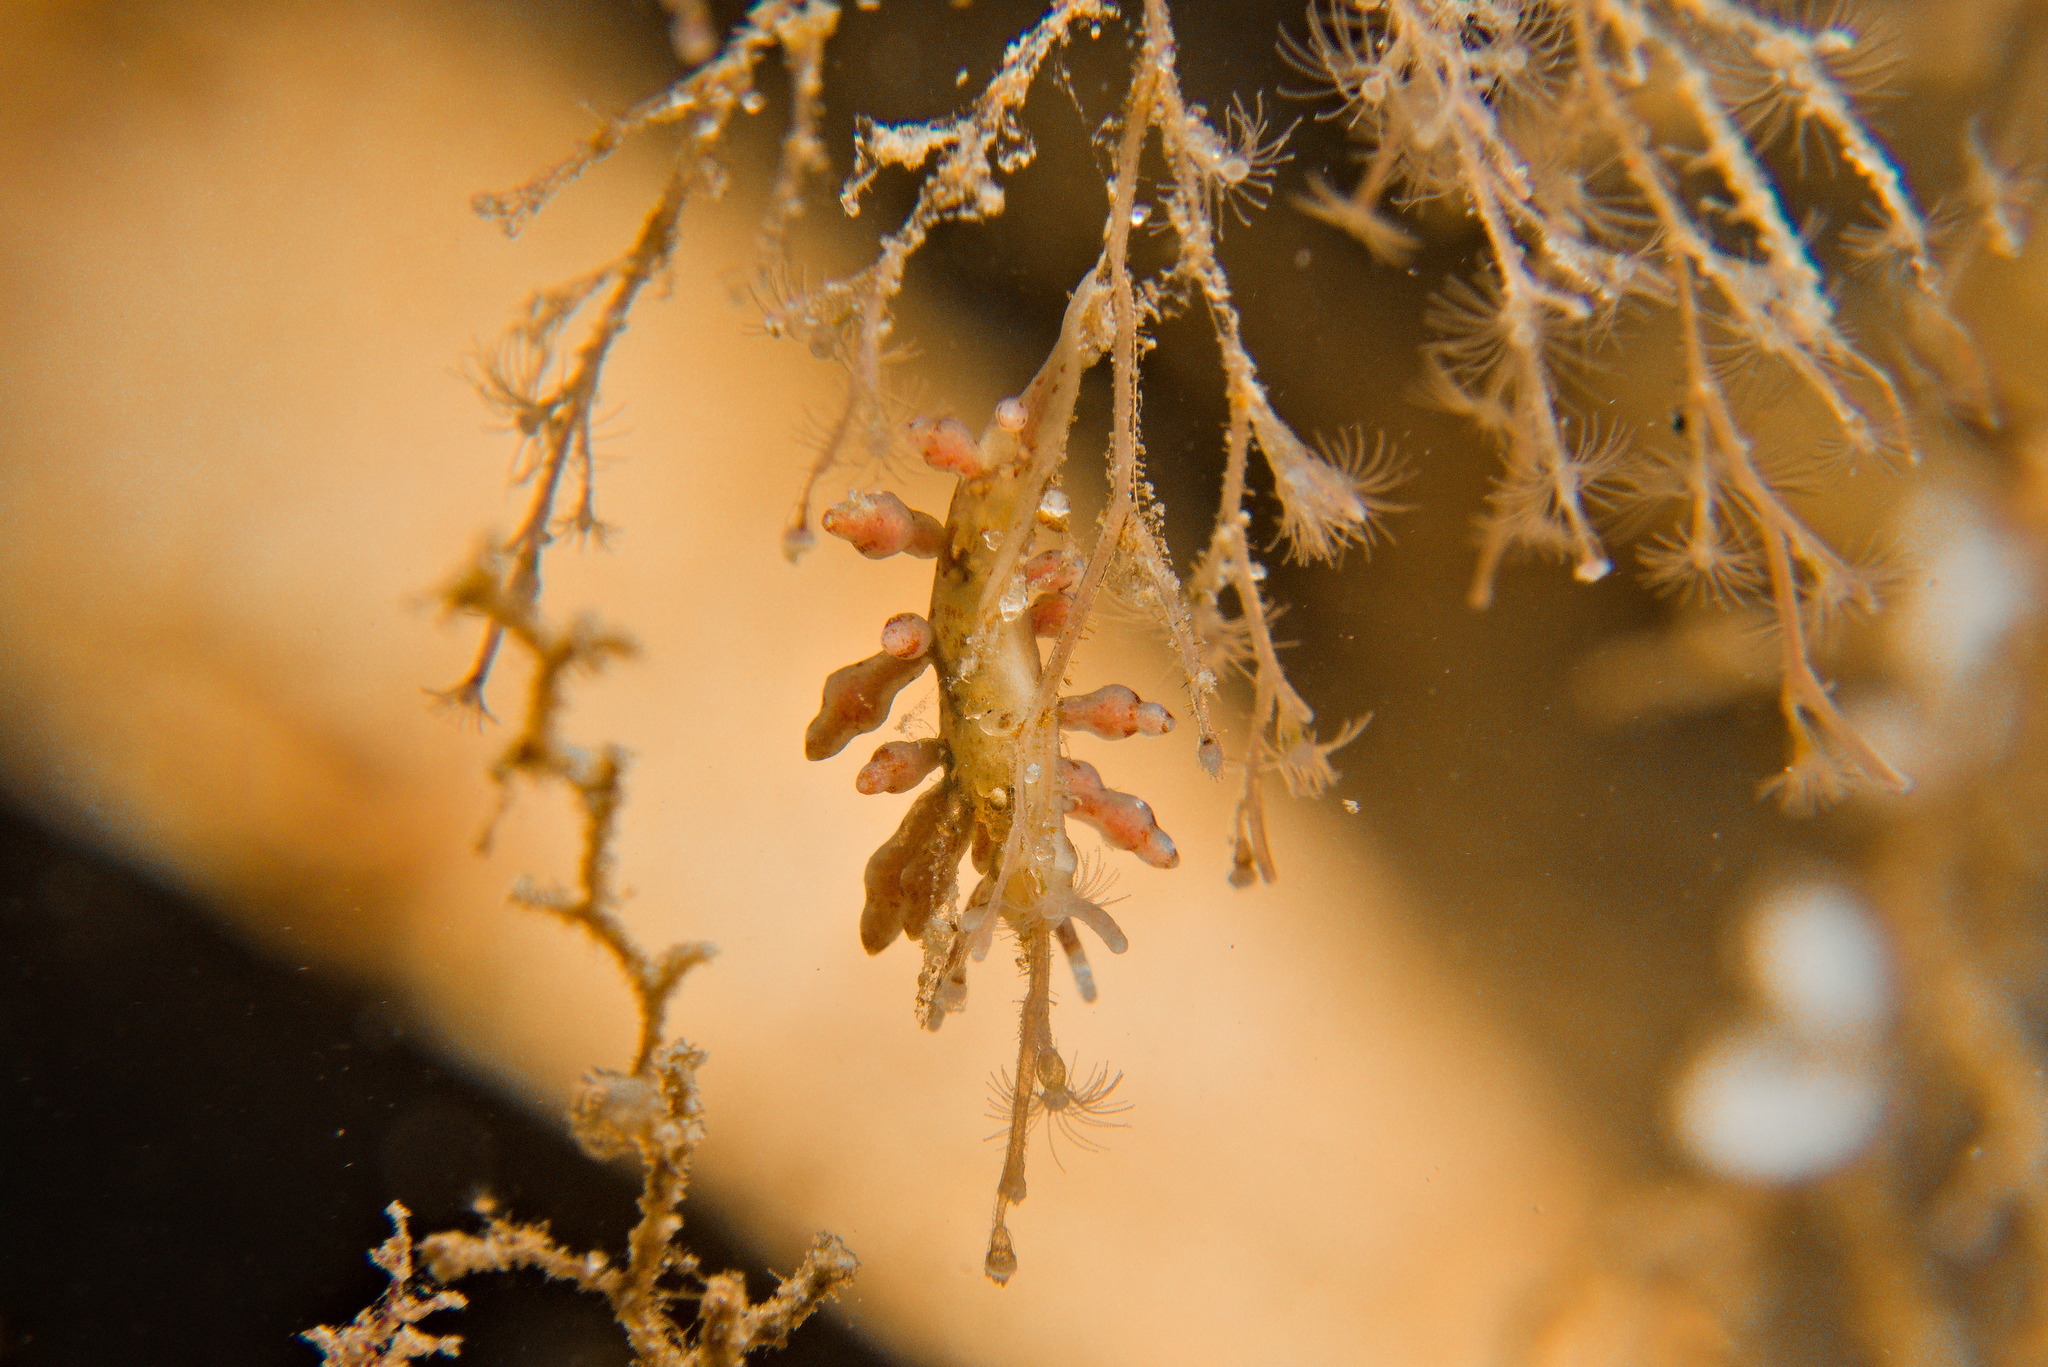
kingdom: Animalia
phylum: Mollusca
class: Gastropoda
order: Nudibranchia
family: Eubranchidae
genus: Eubranchus
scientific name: Eubranchus rupium
